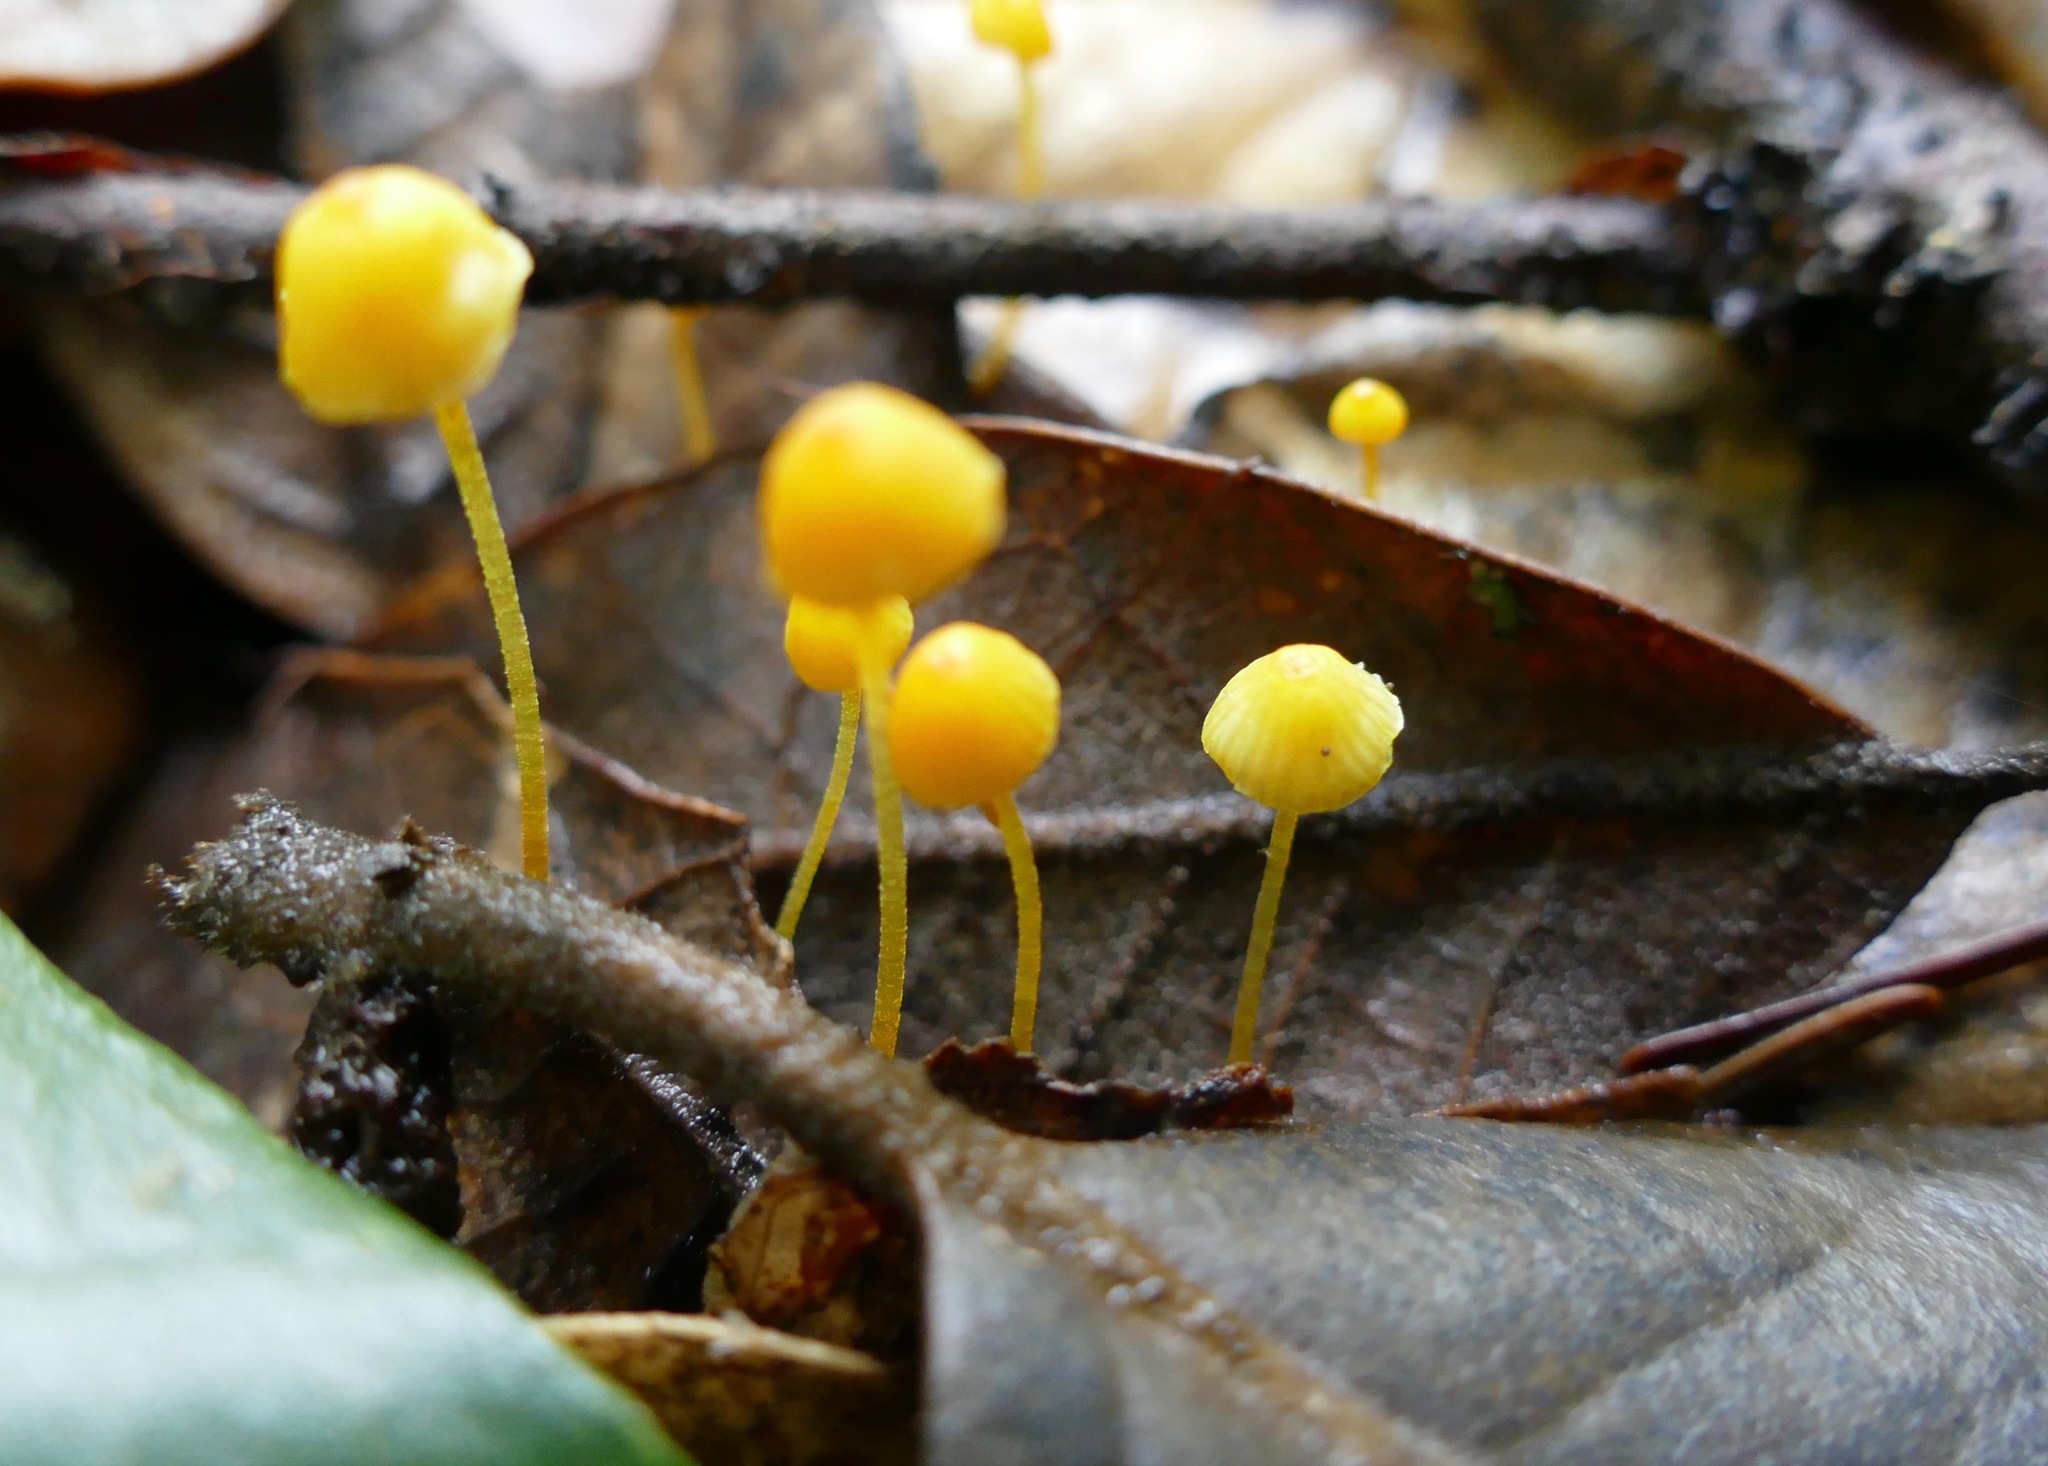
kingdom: Fungi
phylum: Basidiomycota
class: Agaricomycetes
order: Agaricales
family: Mycenaceae
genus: Mycena
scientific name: Mycena oregonensis
